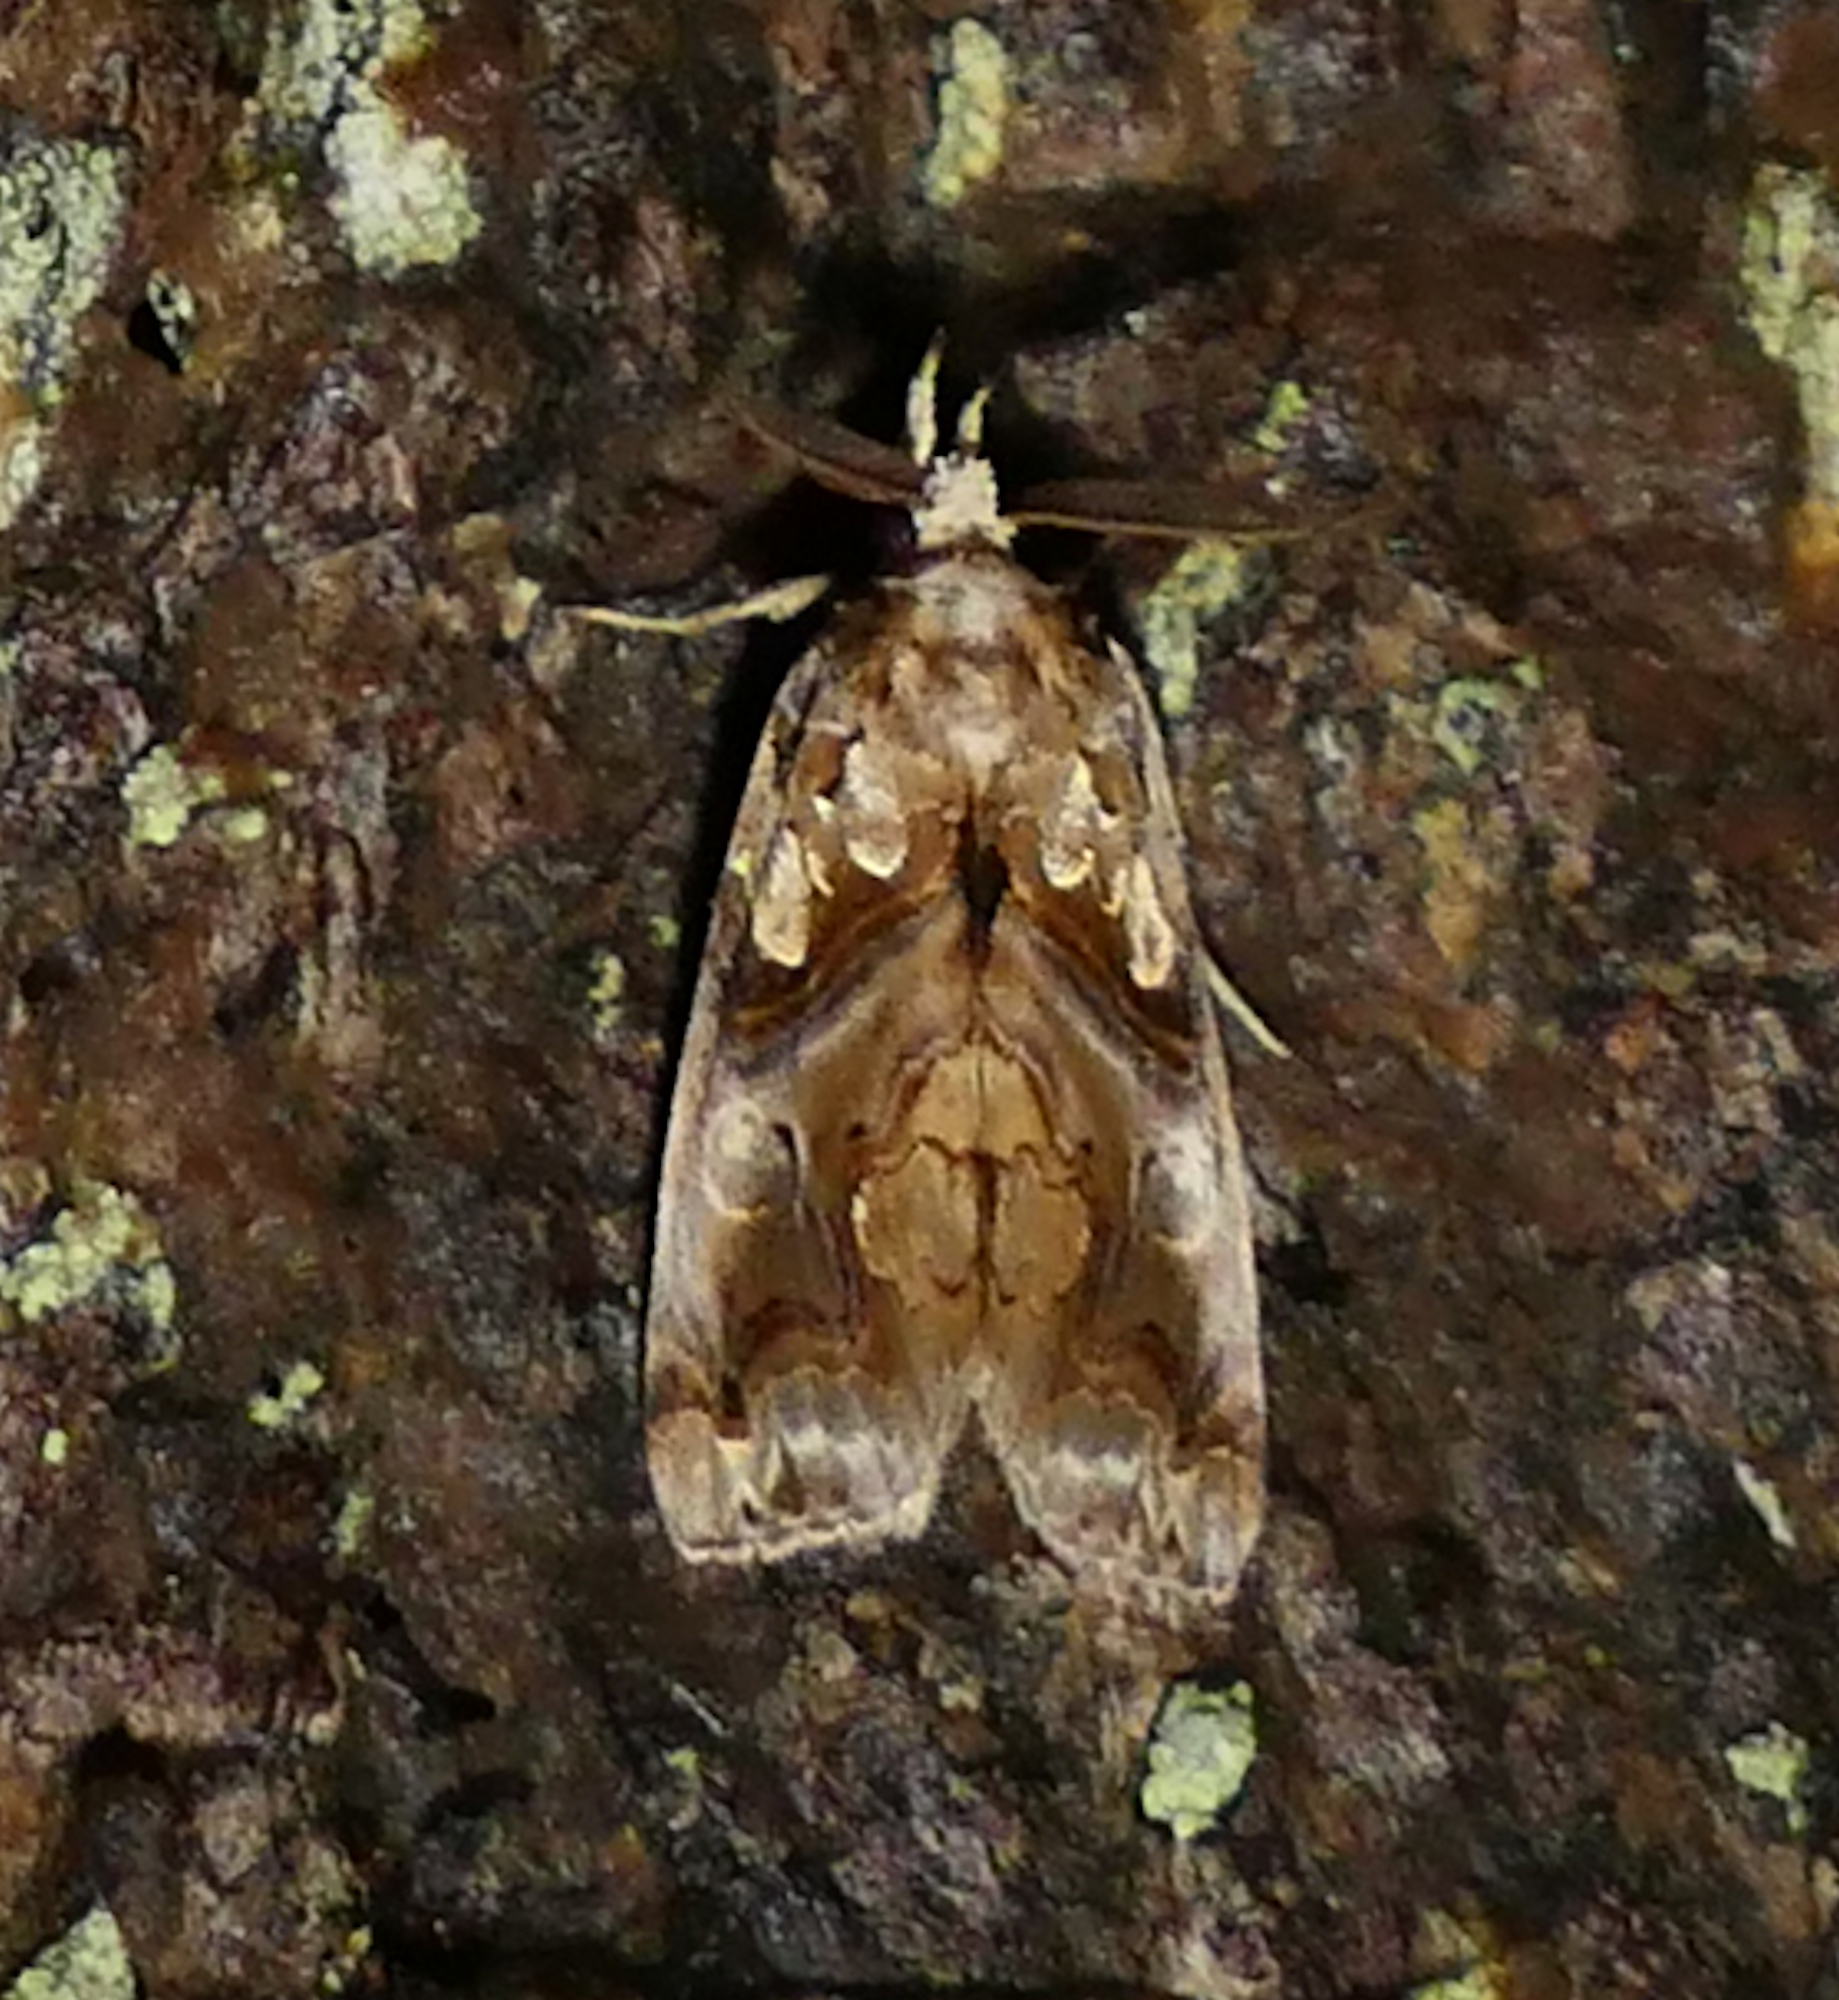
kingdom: Animalia
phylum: Arthropoda
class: Insecta
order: Lepidoptera
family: Erebidae
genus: Plusiodonta
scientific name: Plusiodonta compressipalpis
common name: Moonseed moth
